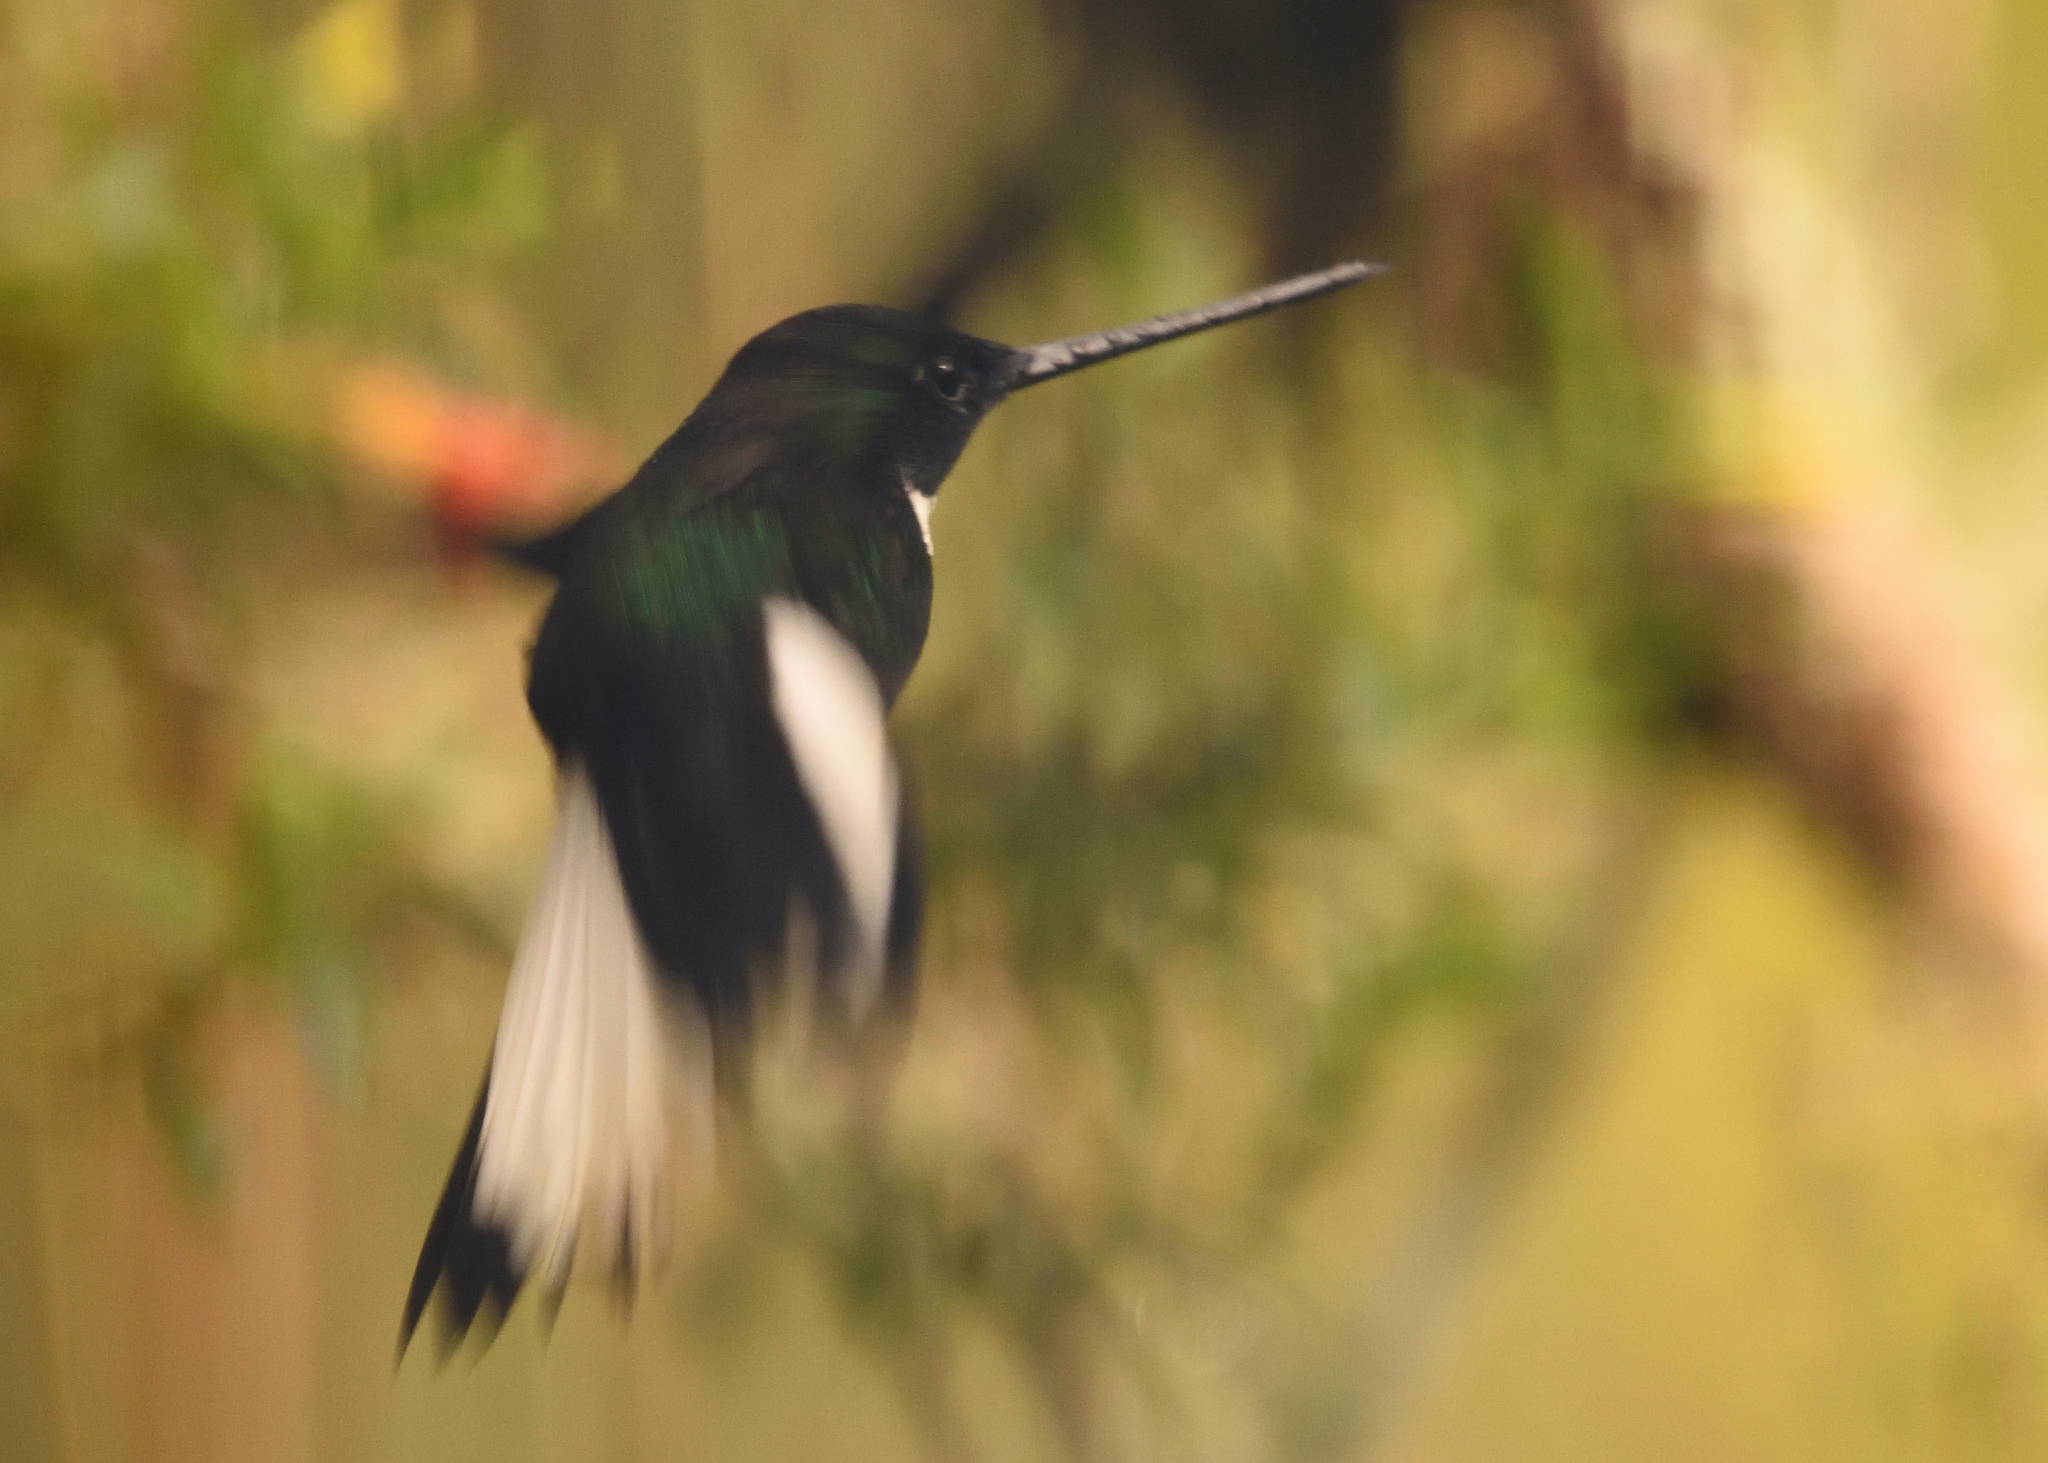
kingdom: Animalia
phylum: Chordata
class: Aves
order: Apodiformes
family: Trochilidae
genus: Coeligena
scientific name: Coeligena torquata
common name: Collared inca
